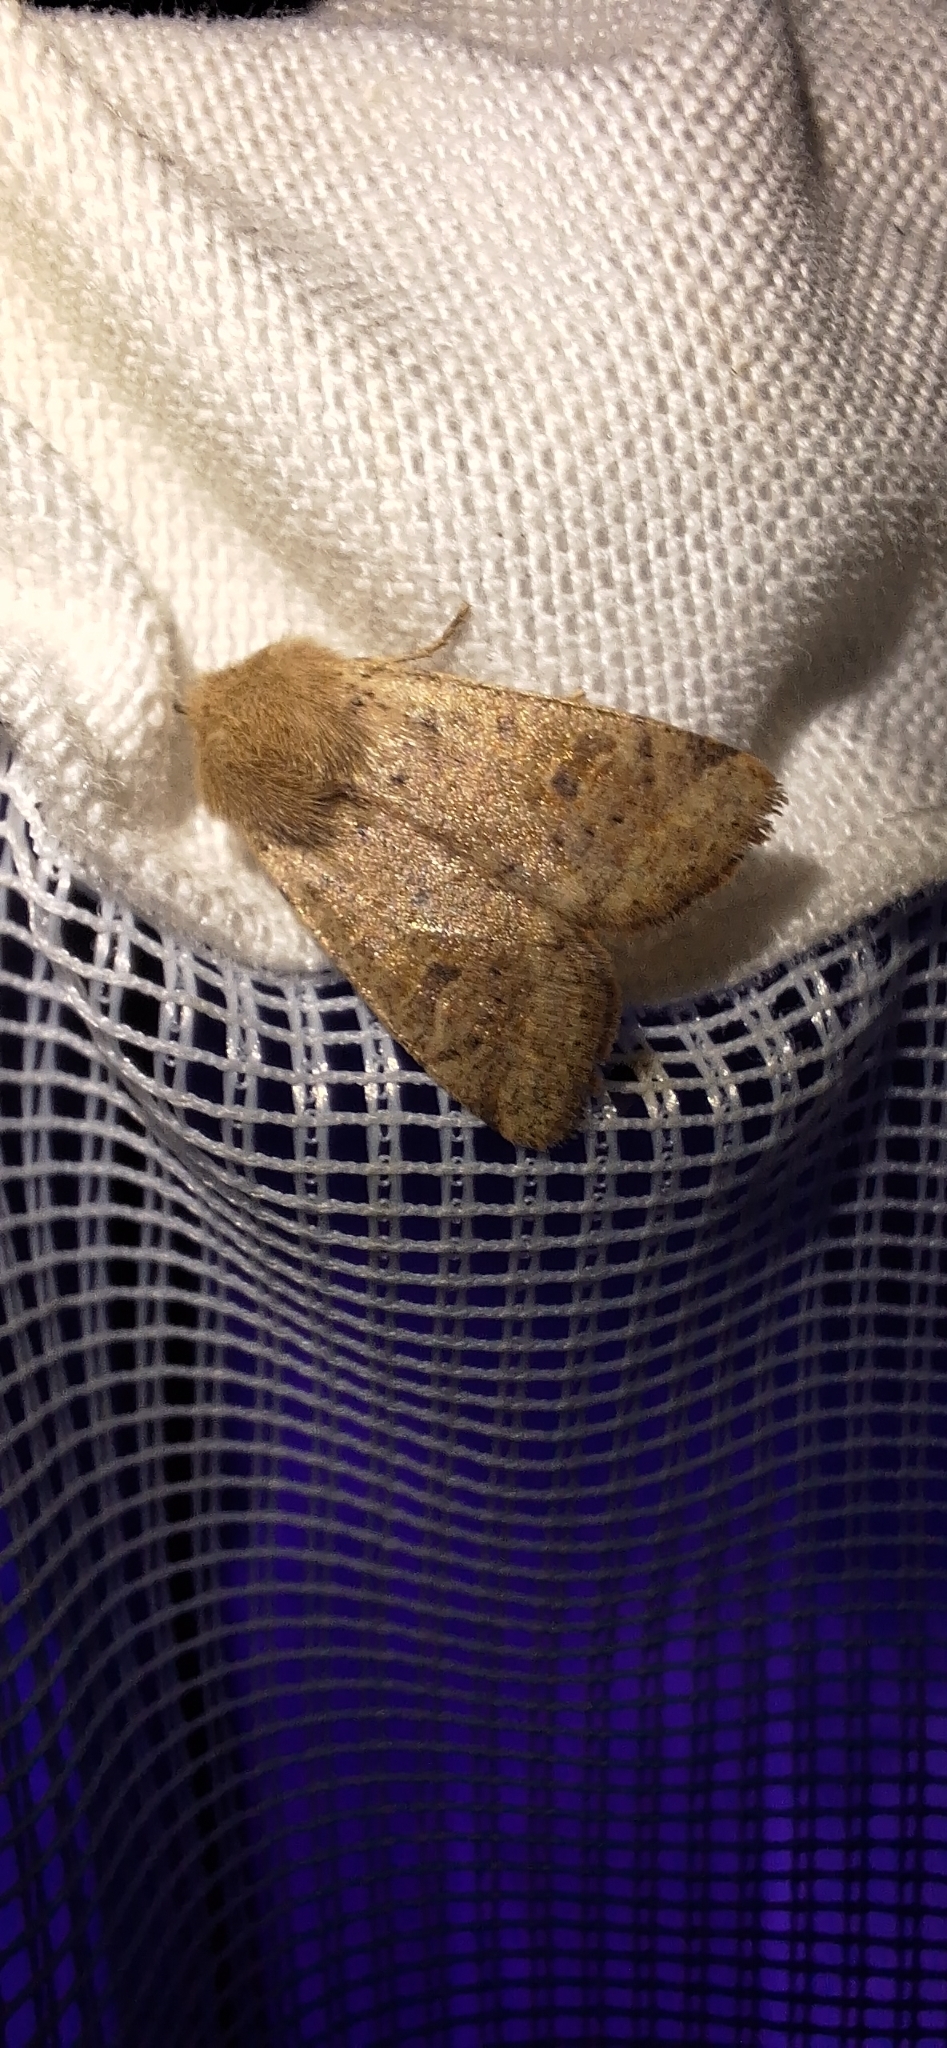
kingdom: Animalia
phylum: Arthropoda
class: Insecta
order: Lepidoptera
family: Noctuidae
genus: Orthosia
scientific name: Orthosia cruda
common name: Small quaker
